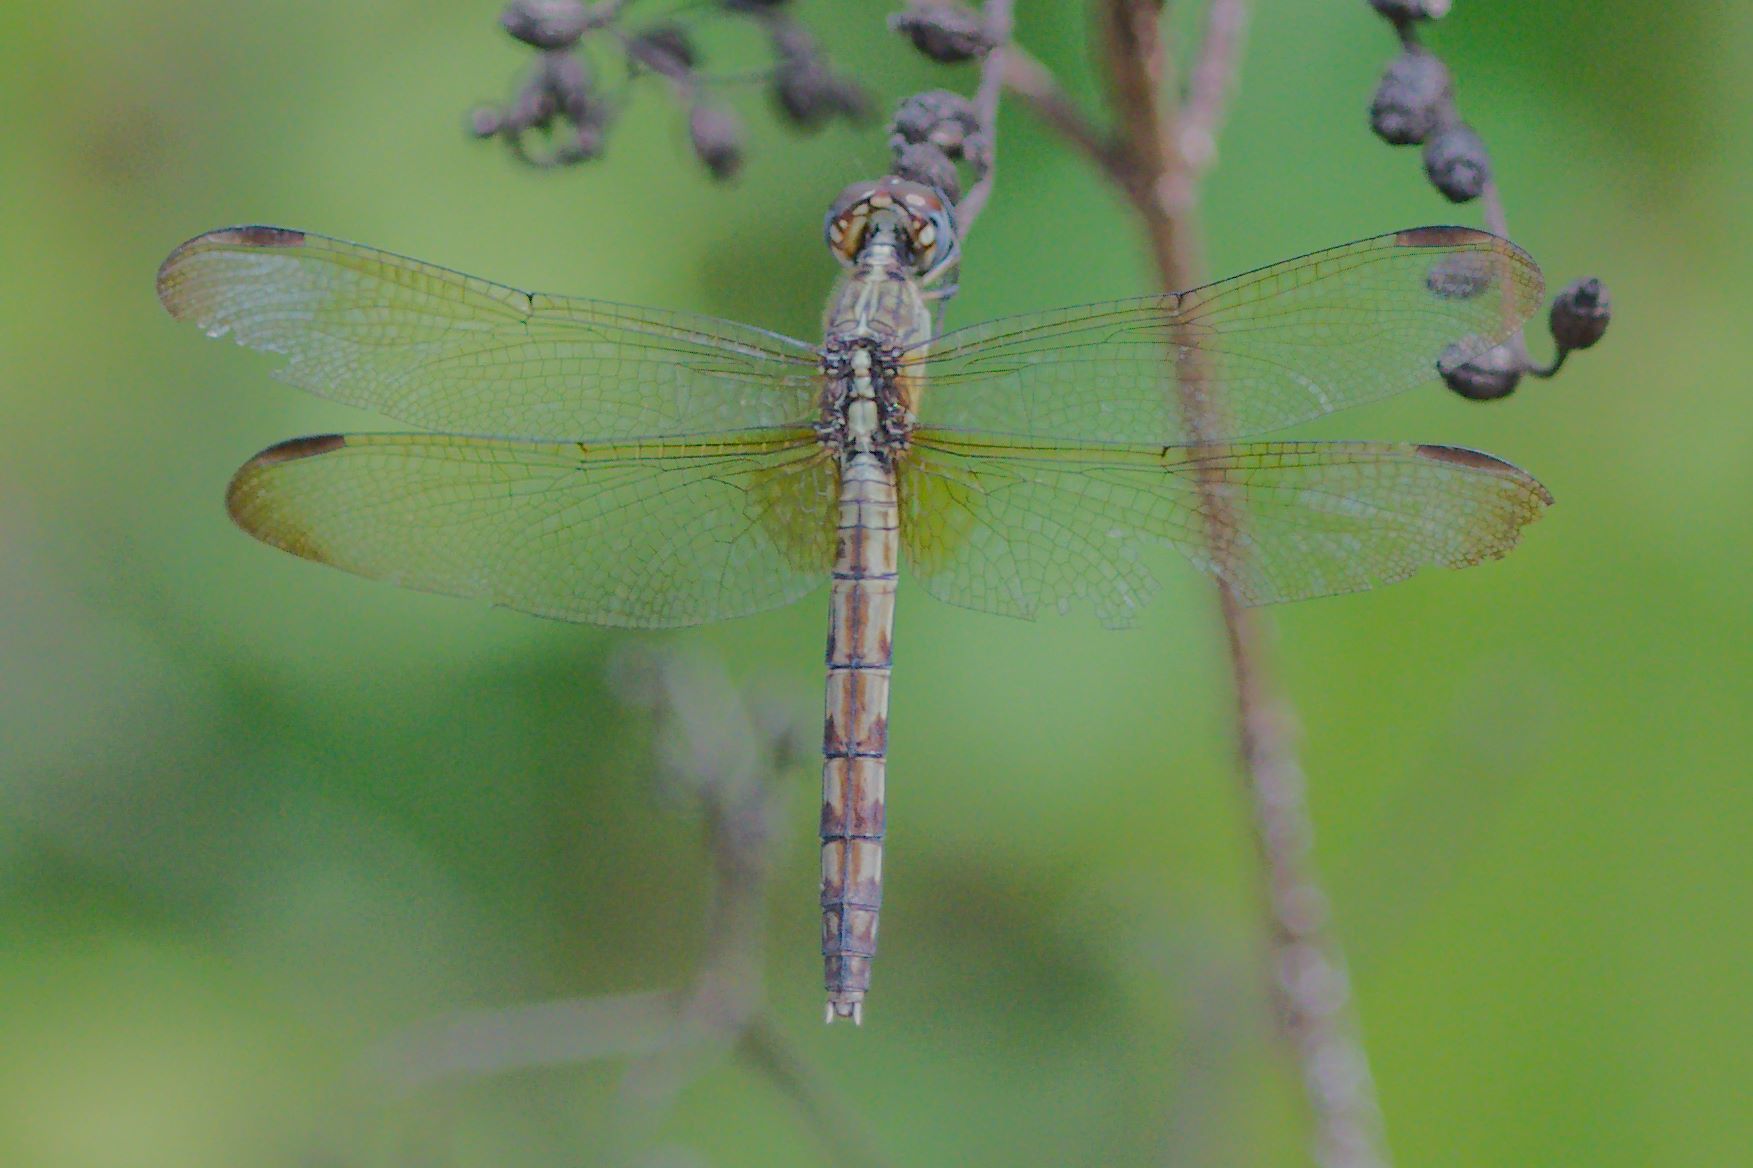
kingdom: Animalia
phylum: Arthropoda
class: Insecta
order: Odonata
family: Libellulidae
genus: Erythrodiplax
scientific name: Erythrodiplax umbrata
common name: Band-winged dragonlet
